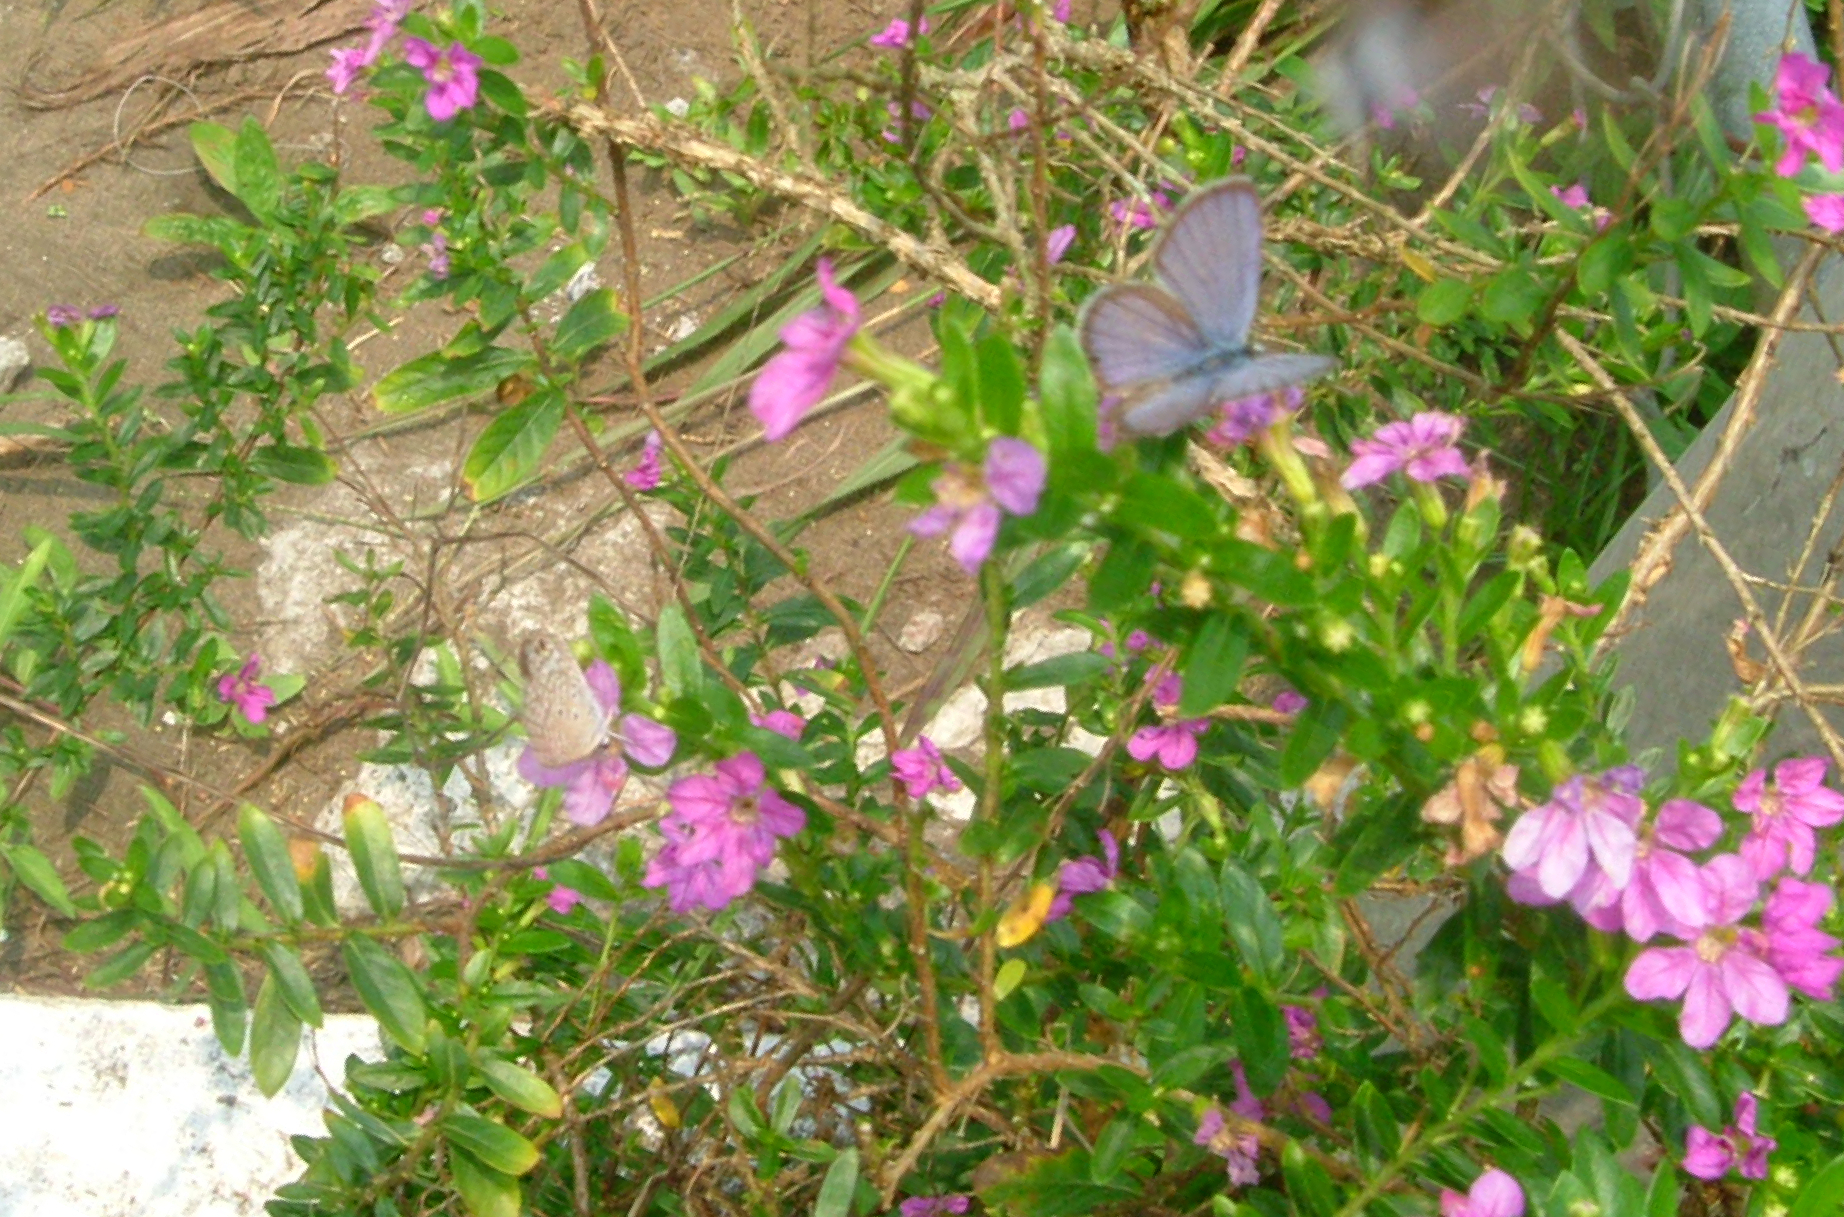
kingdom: Animalia
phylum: Arthropoda
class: Insecta
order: Lepidoptera
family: Lycaenidae
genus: Hemiargus
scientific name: Hemiargus ceraunus
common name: Ceraunus blue
